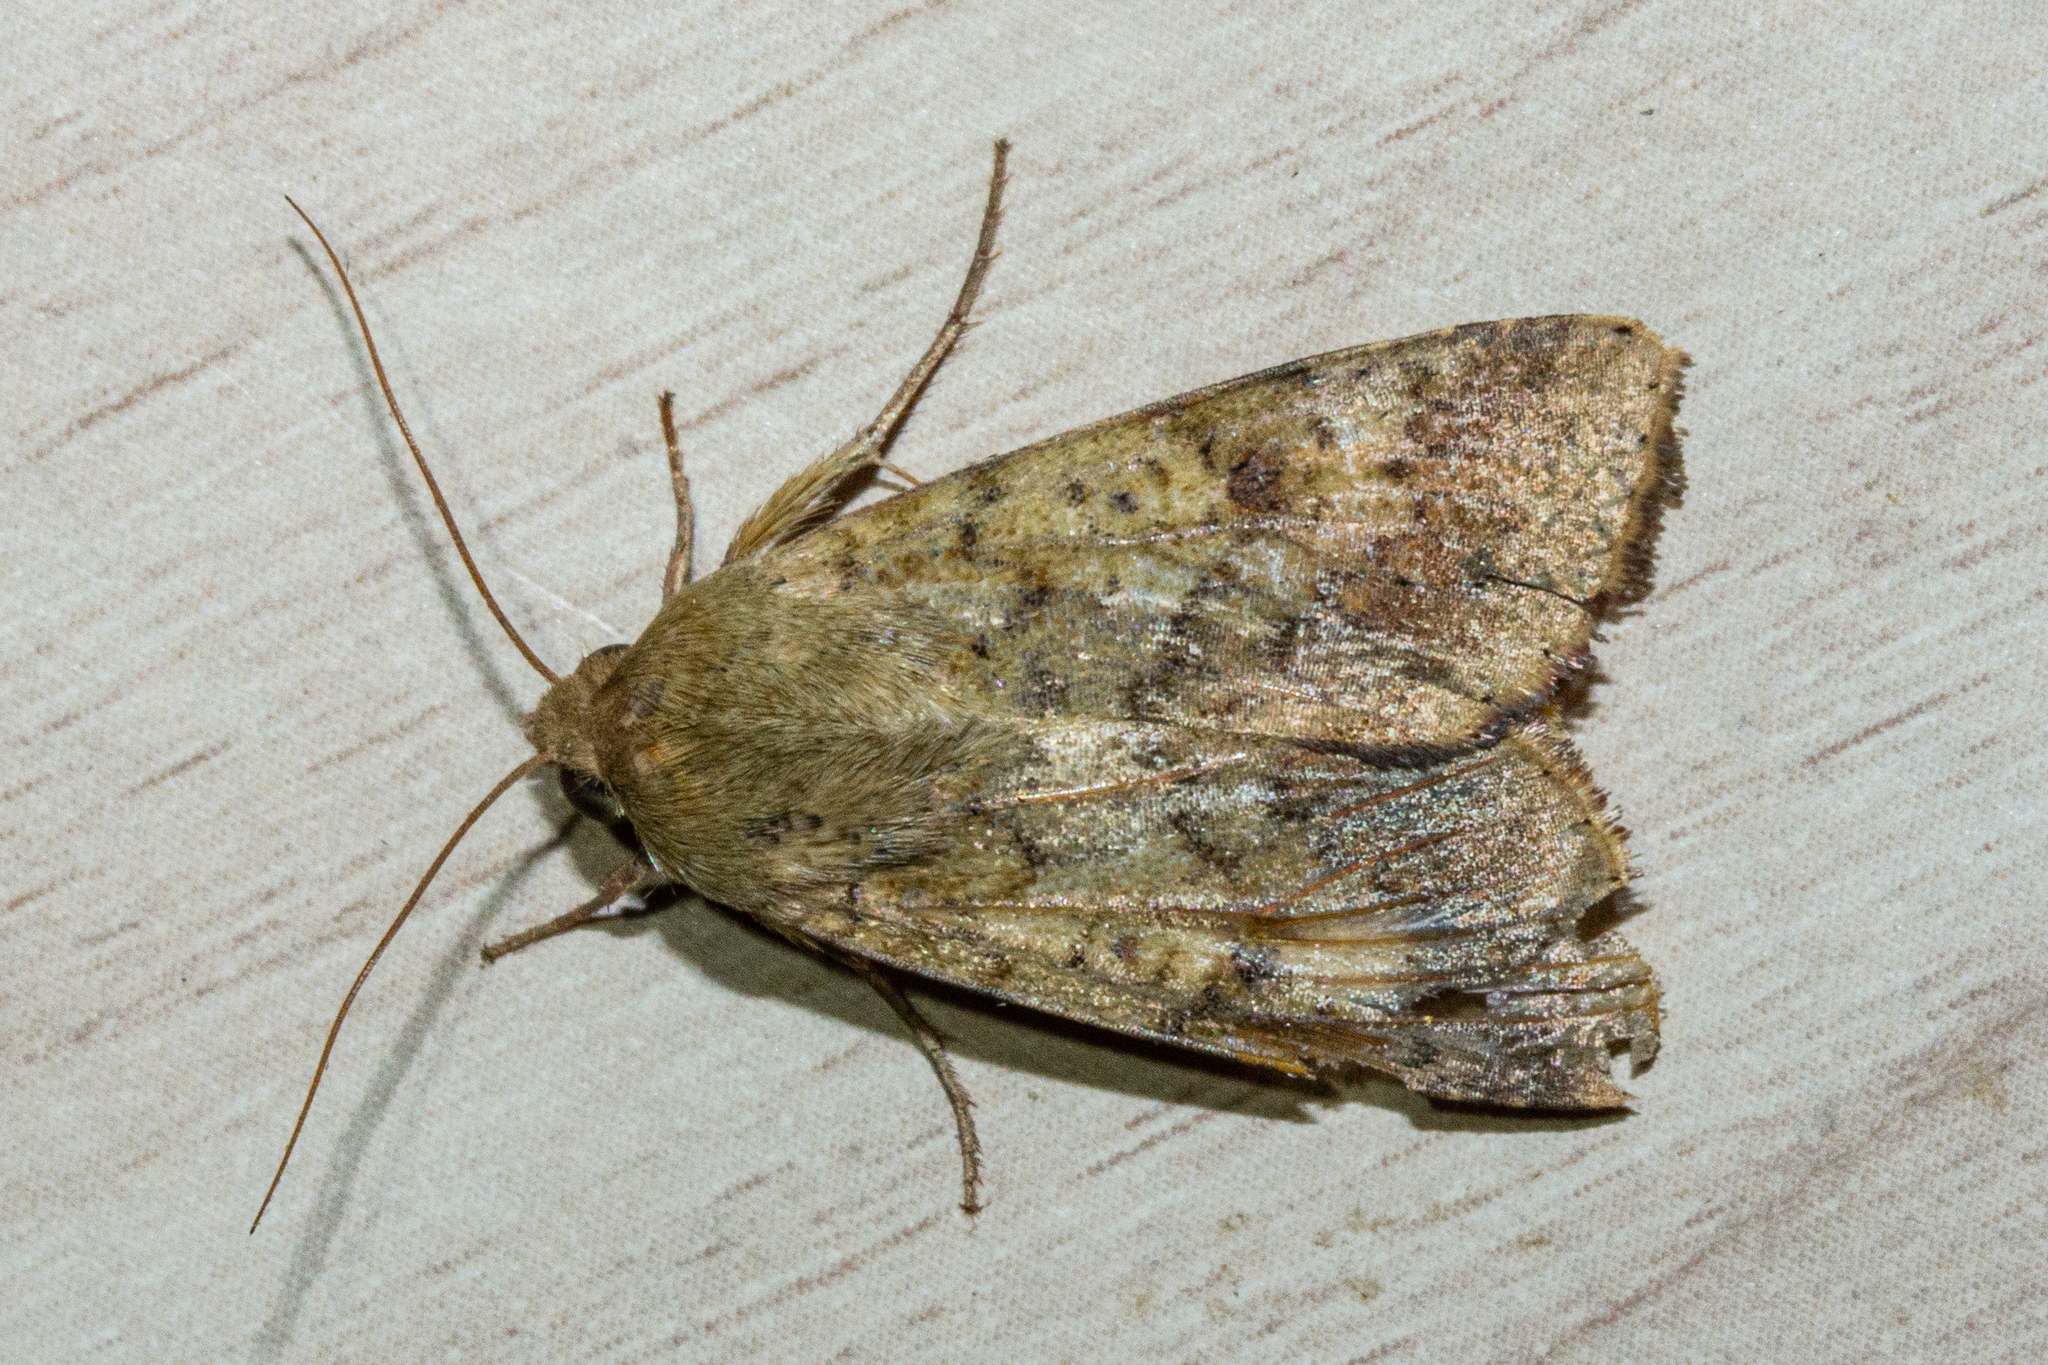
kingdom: Animalia
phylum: Arthropoda
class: Insecta
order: Lepidoptera
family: Noctuidae
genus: Helicoverpa
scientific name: Helicoverpa punctigera
